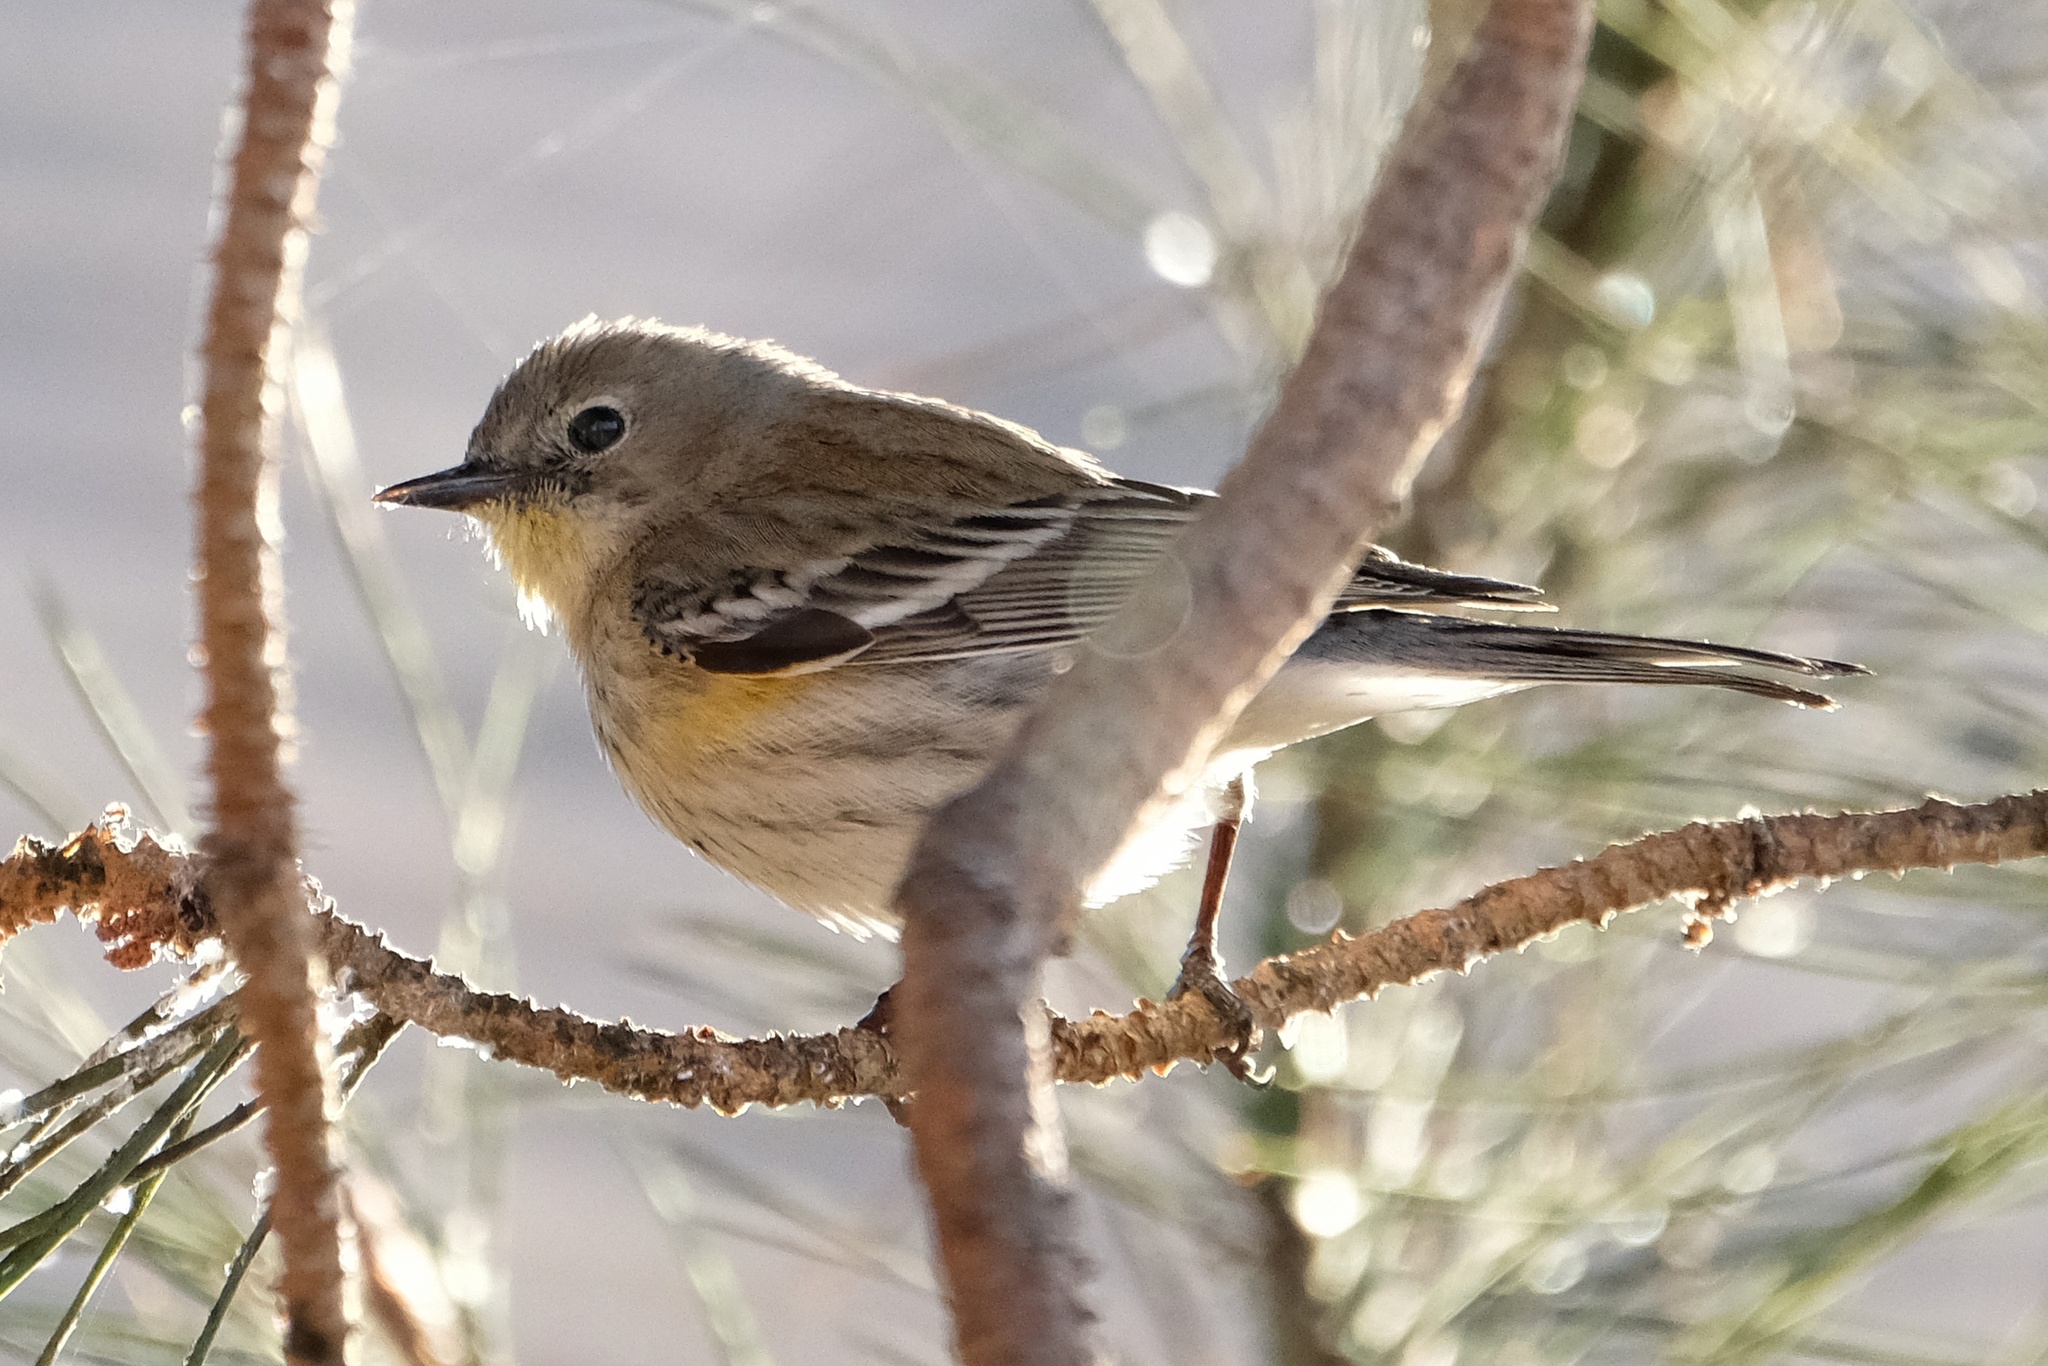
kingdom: Animalia
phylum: Chordata
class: Aves
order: Passeriformes
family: Parulidae
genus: Setophaga
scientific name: Setophaga coronata
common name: Myrtle warbler
